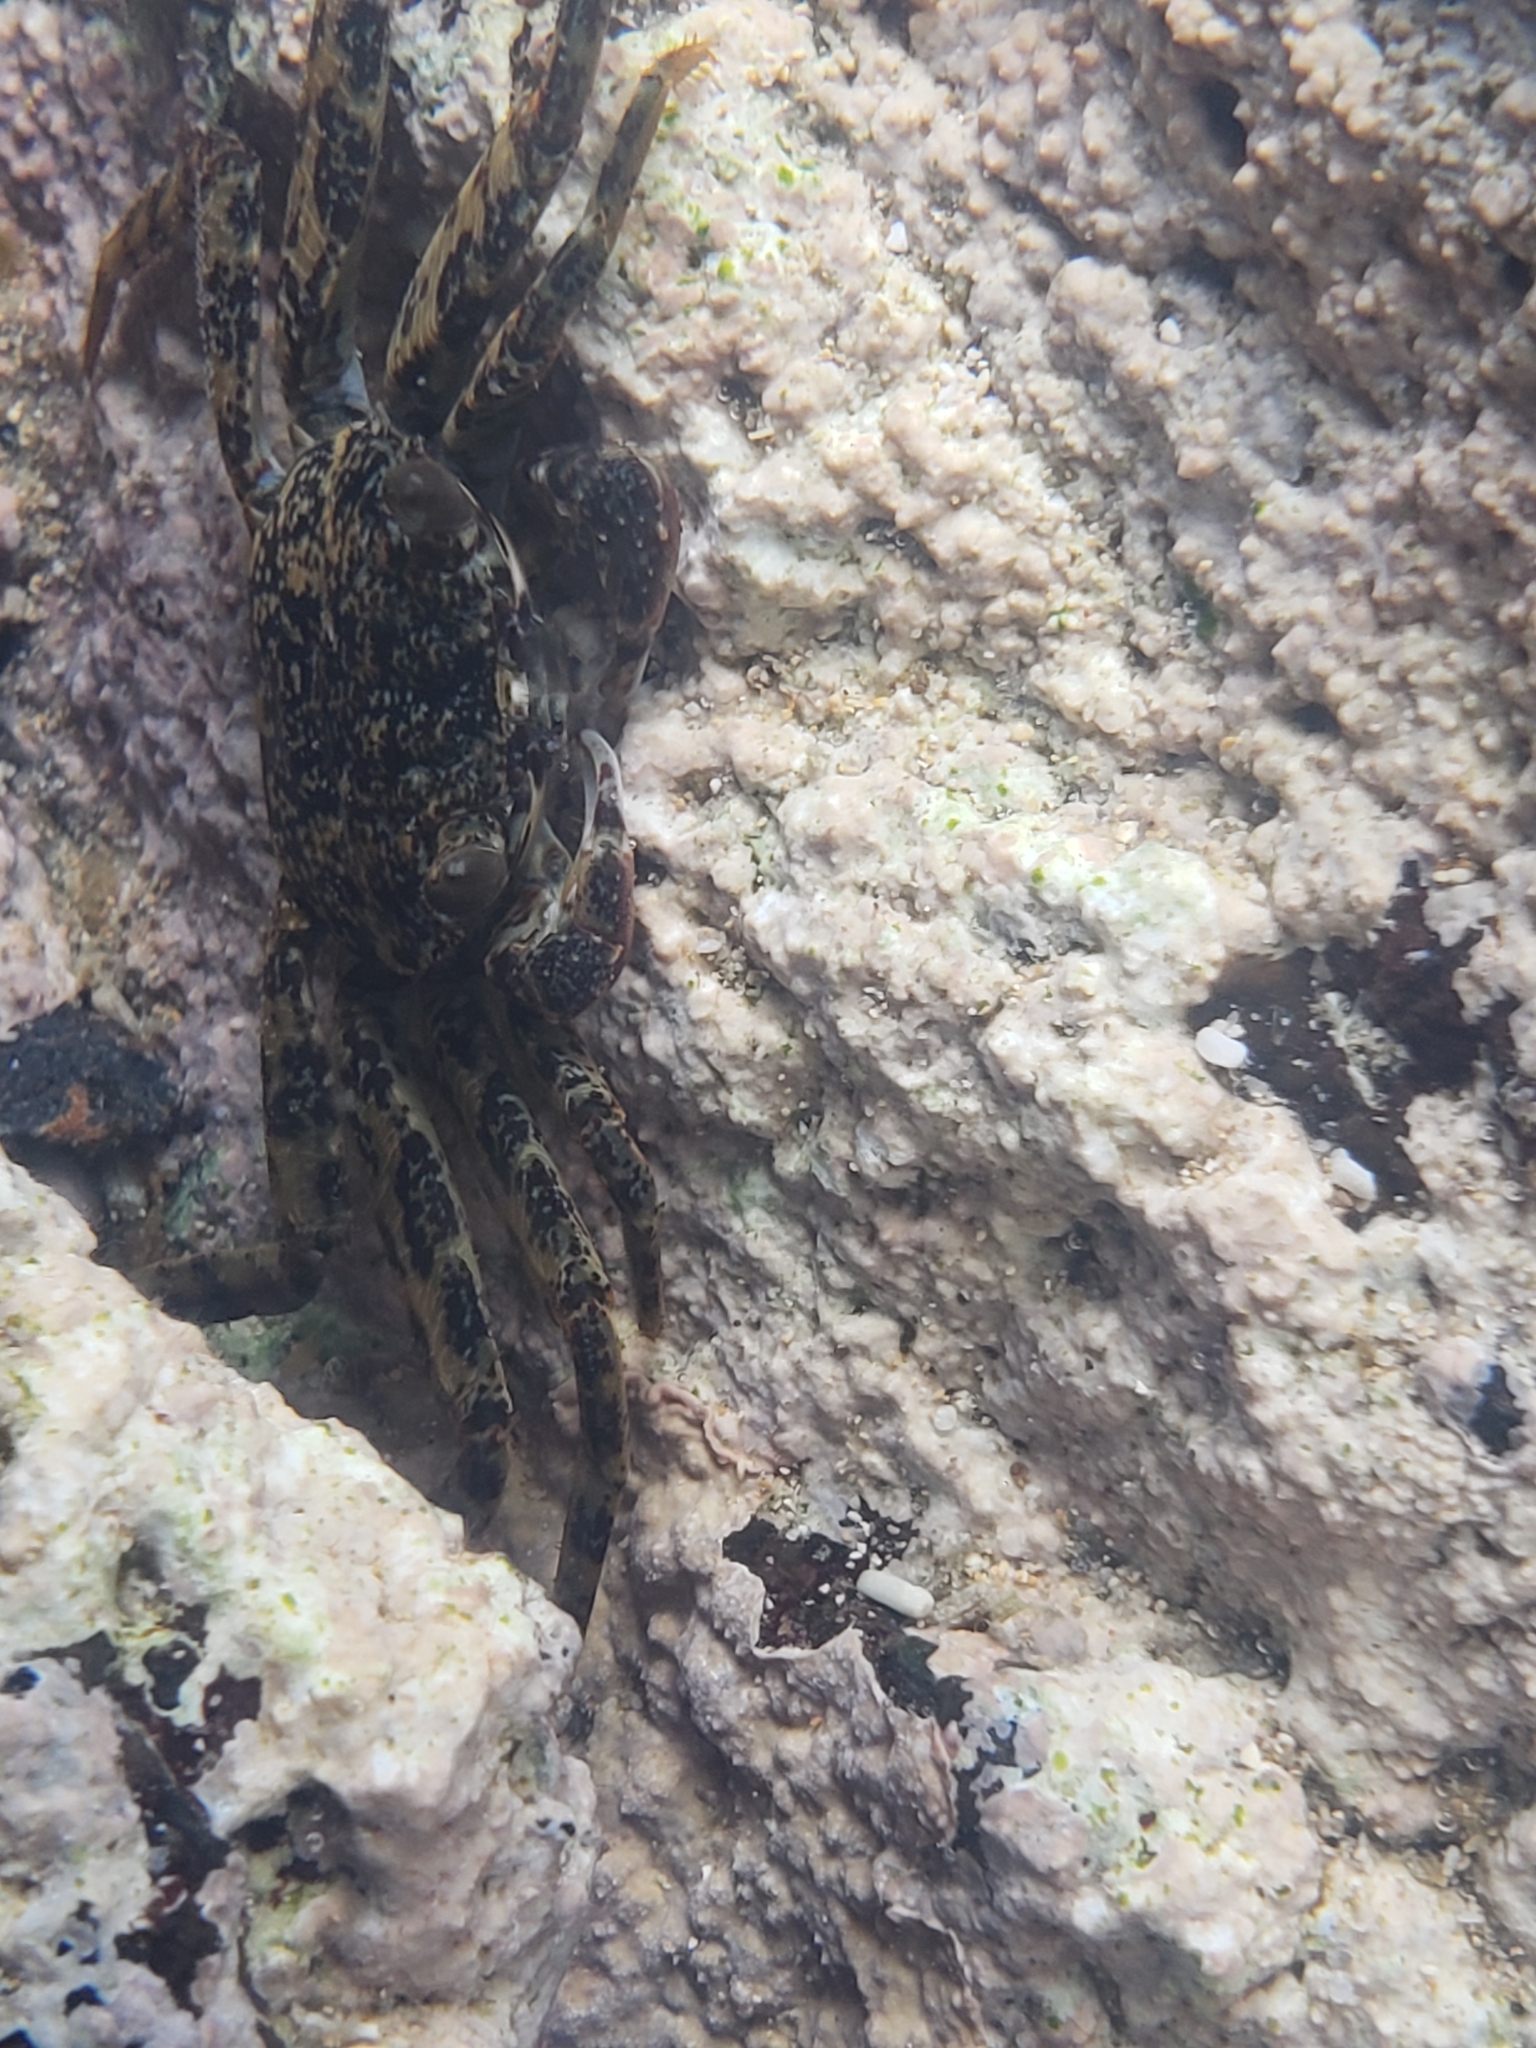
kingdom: Animalia
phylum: Arthropoda
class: Malacostraca
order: Decapoda
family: Grapsidae
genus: Grapsus
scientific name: Grapsus tenuicrustatus
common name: Natal lightfoot crab
